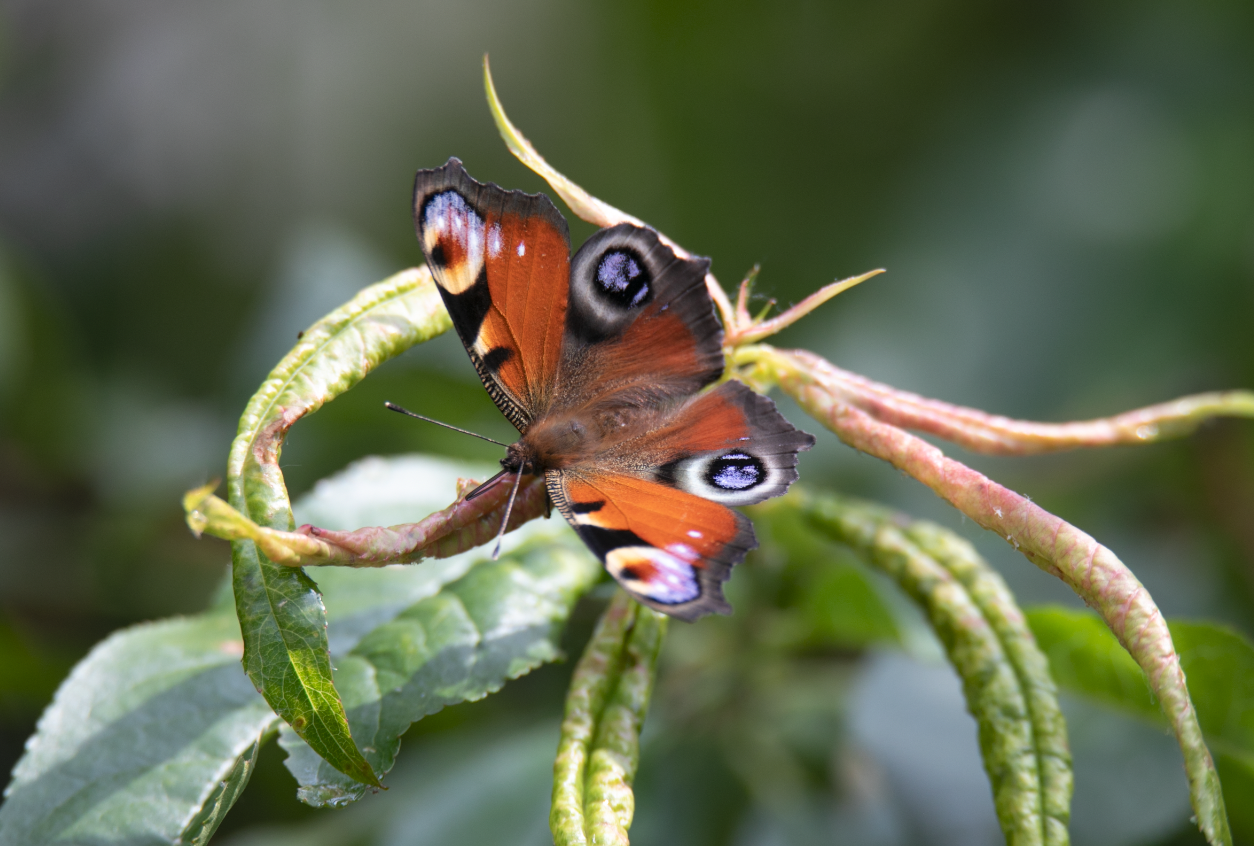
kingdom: Animalia
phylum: Arthropoda
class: Insecta
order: Lepidoptera
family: Nymphalidae
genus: Aglais
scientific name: Aglais io
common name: Peacock
